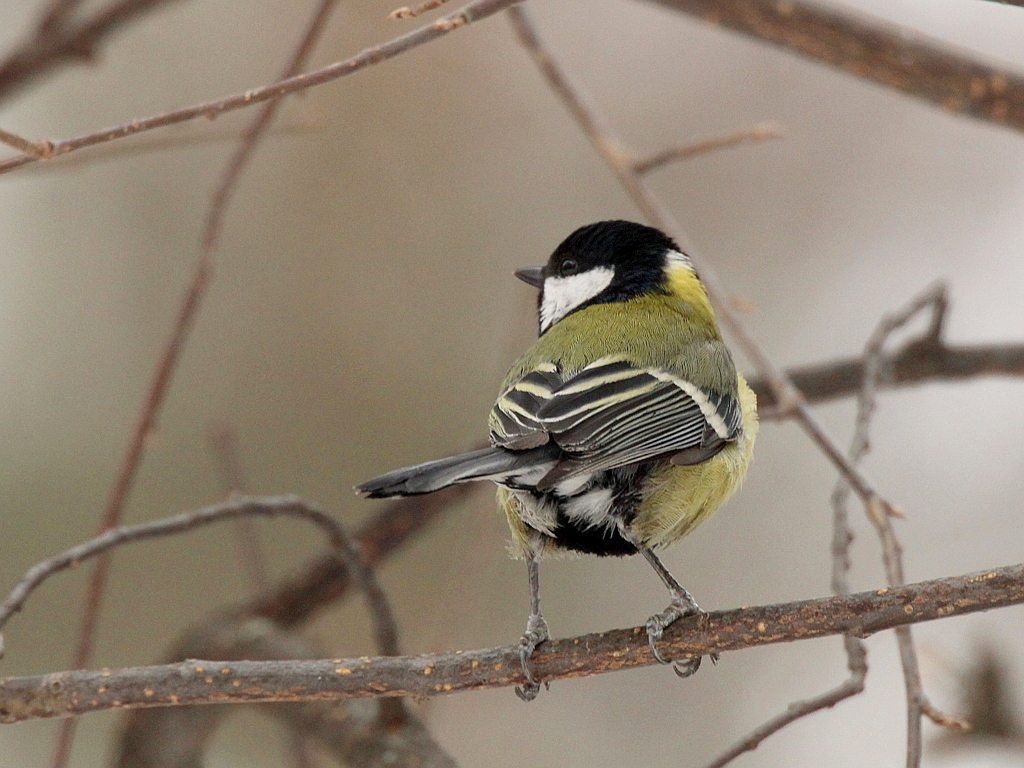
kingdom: Animalia
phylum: Chordata
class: Aves
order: Passeriformes
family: Paridae
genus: Parus
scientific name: Parus major
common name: Great tit
